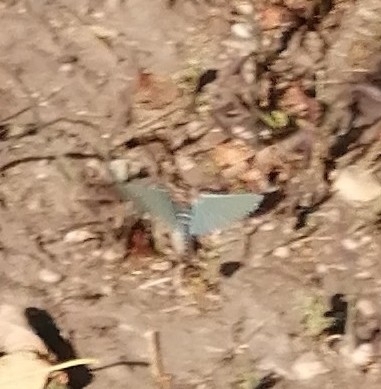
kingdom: Animalia
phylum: Arthropoda
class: Insecta
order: Orthoptera
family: Acrididae
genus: Oedipoda
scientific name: Oedipoda caerulescens
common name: Blue-winged grasshopper
